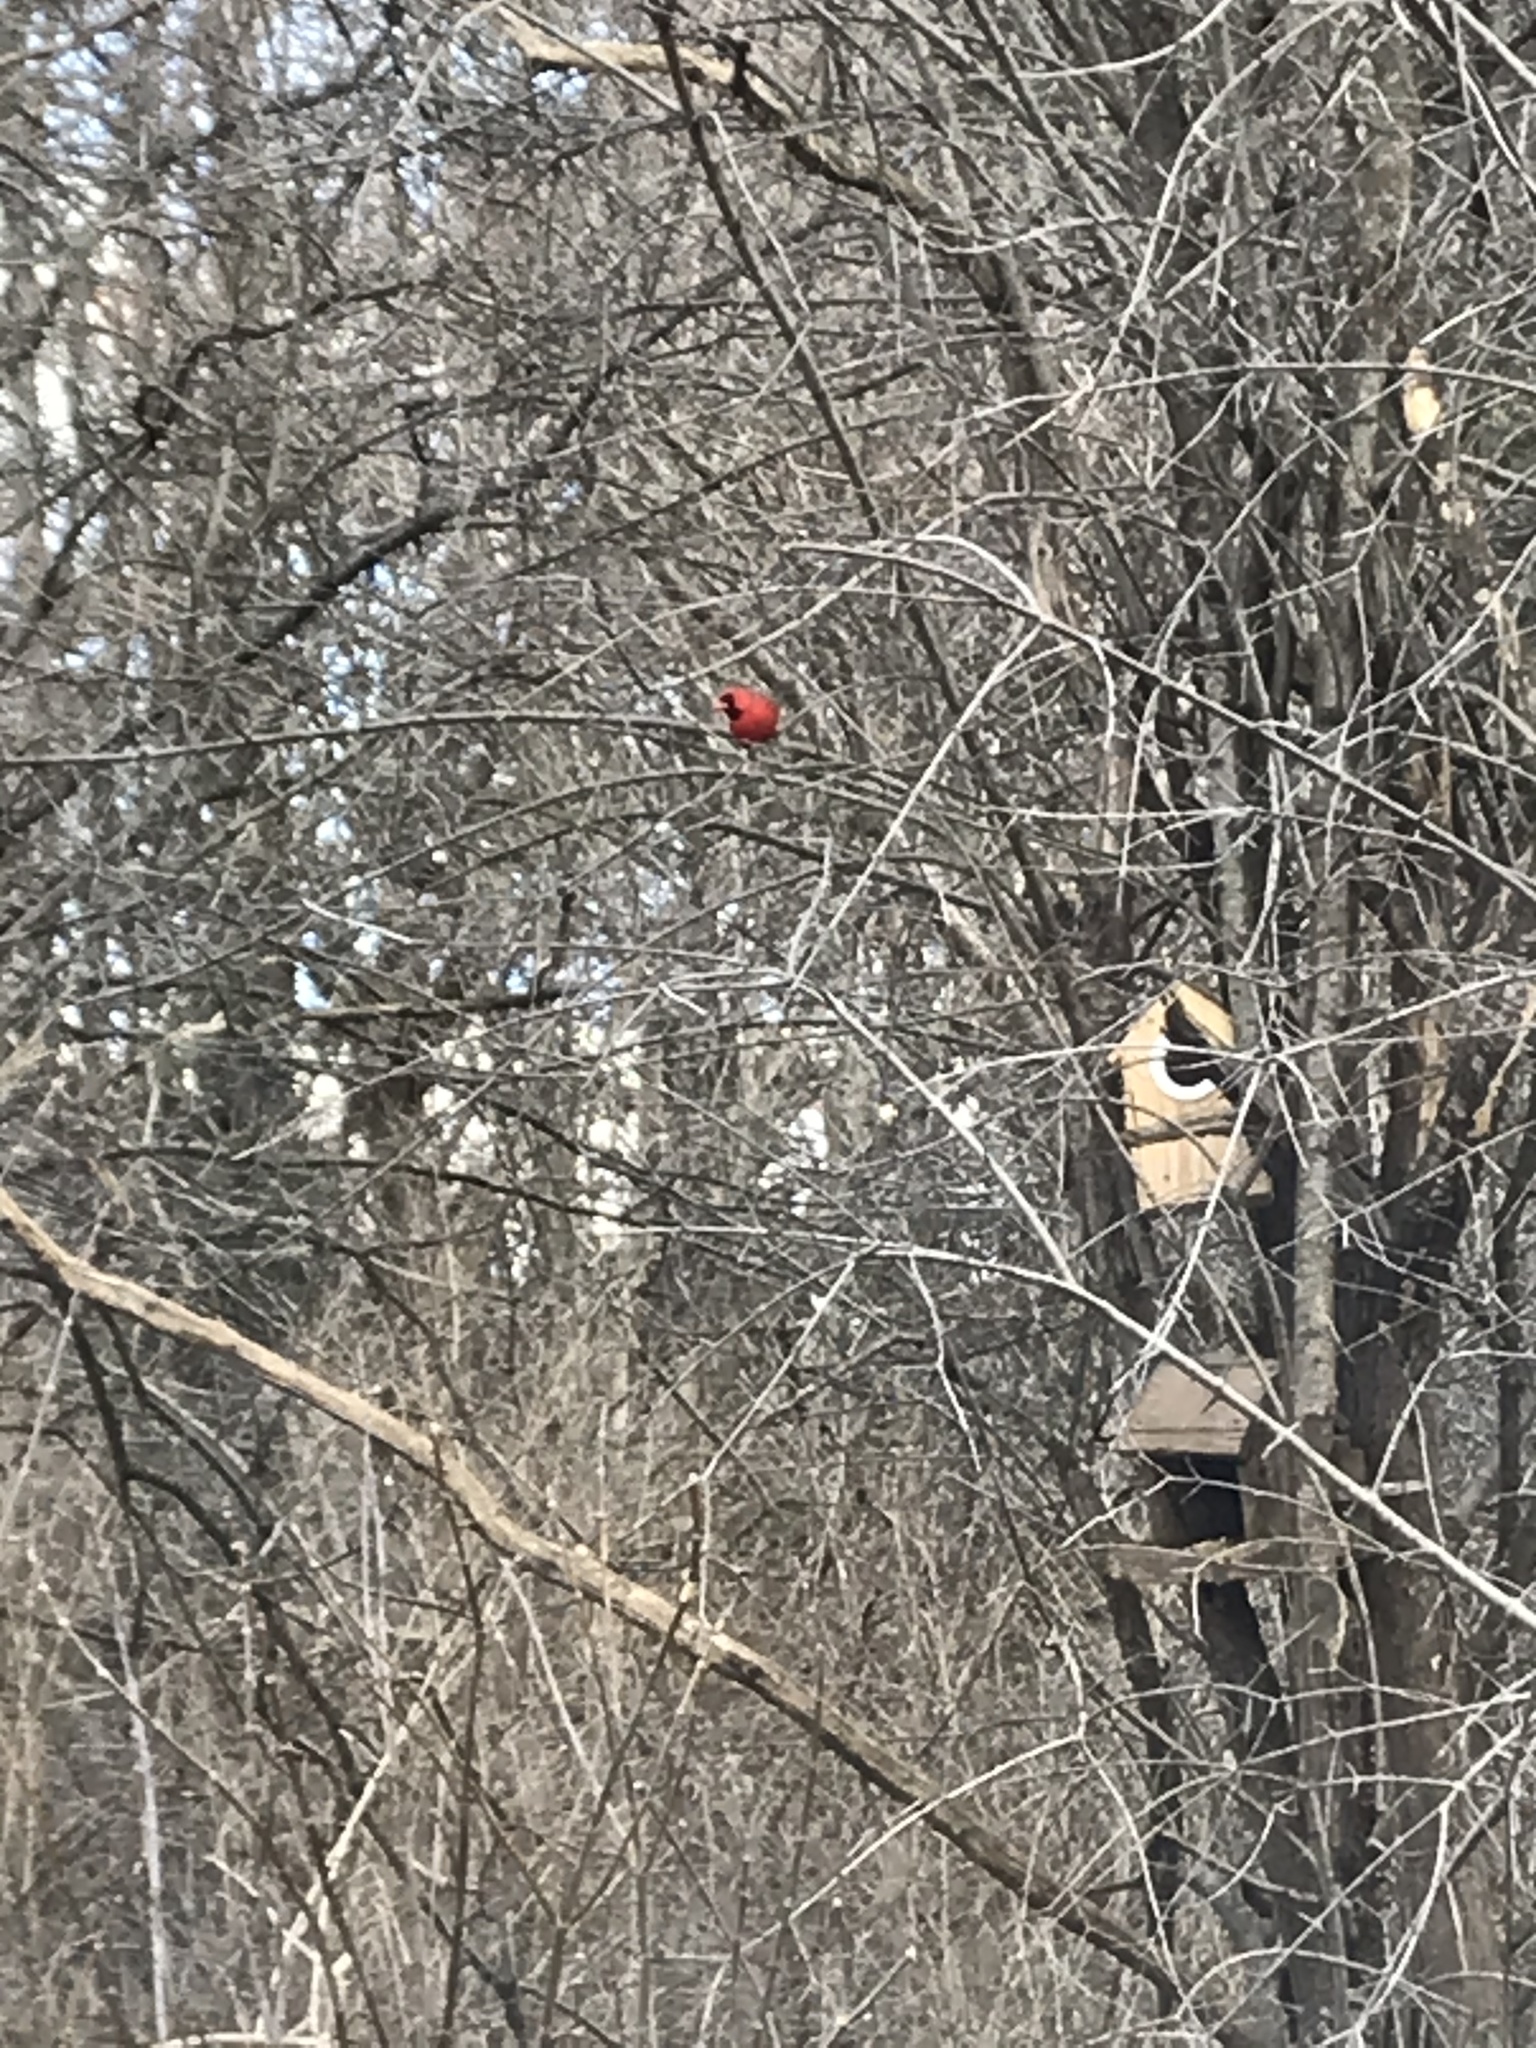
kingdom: Animalia
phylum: Chordata
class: Aves
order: Passeriformes
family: Cardinalidae
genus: Cardinalis
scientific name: Cardinalis cardinalis
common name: Northern cardinal
